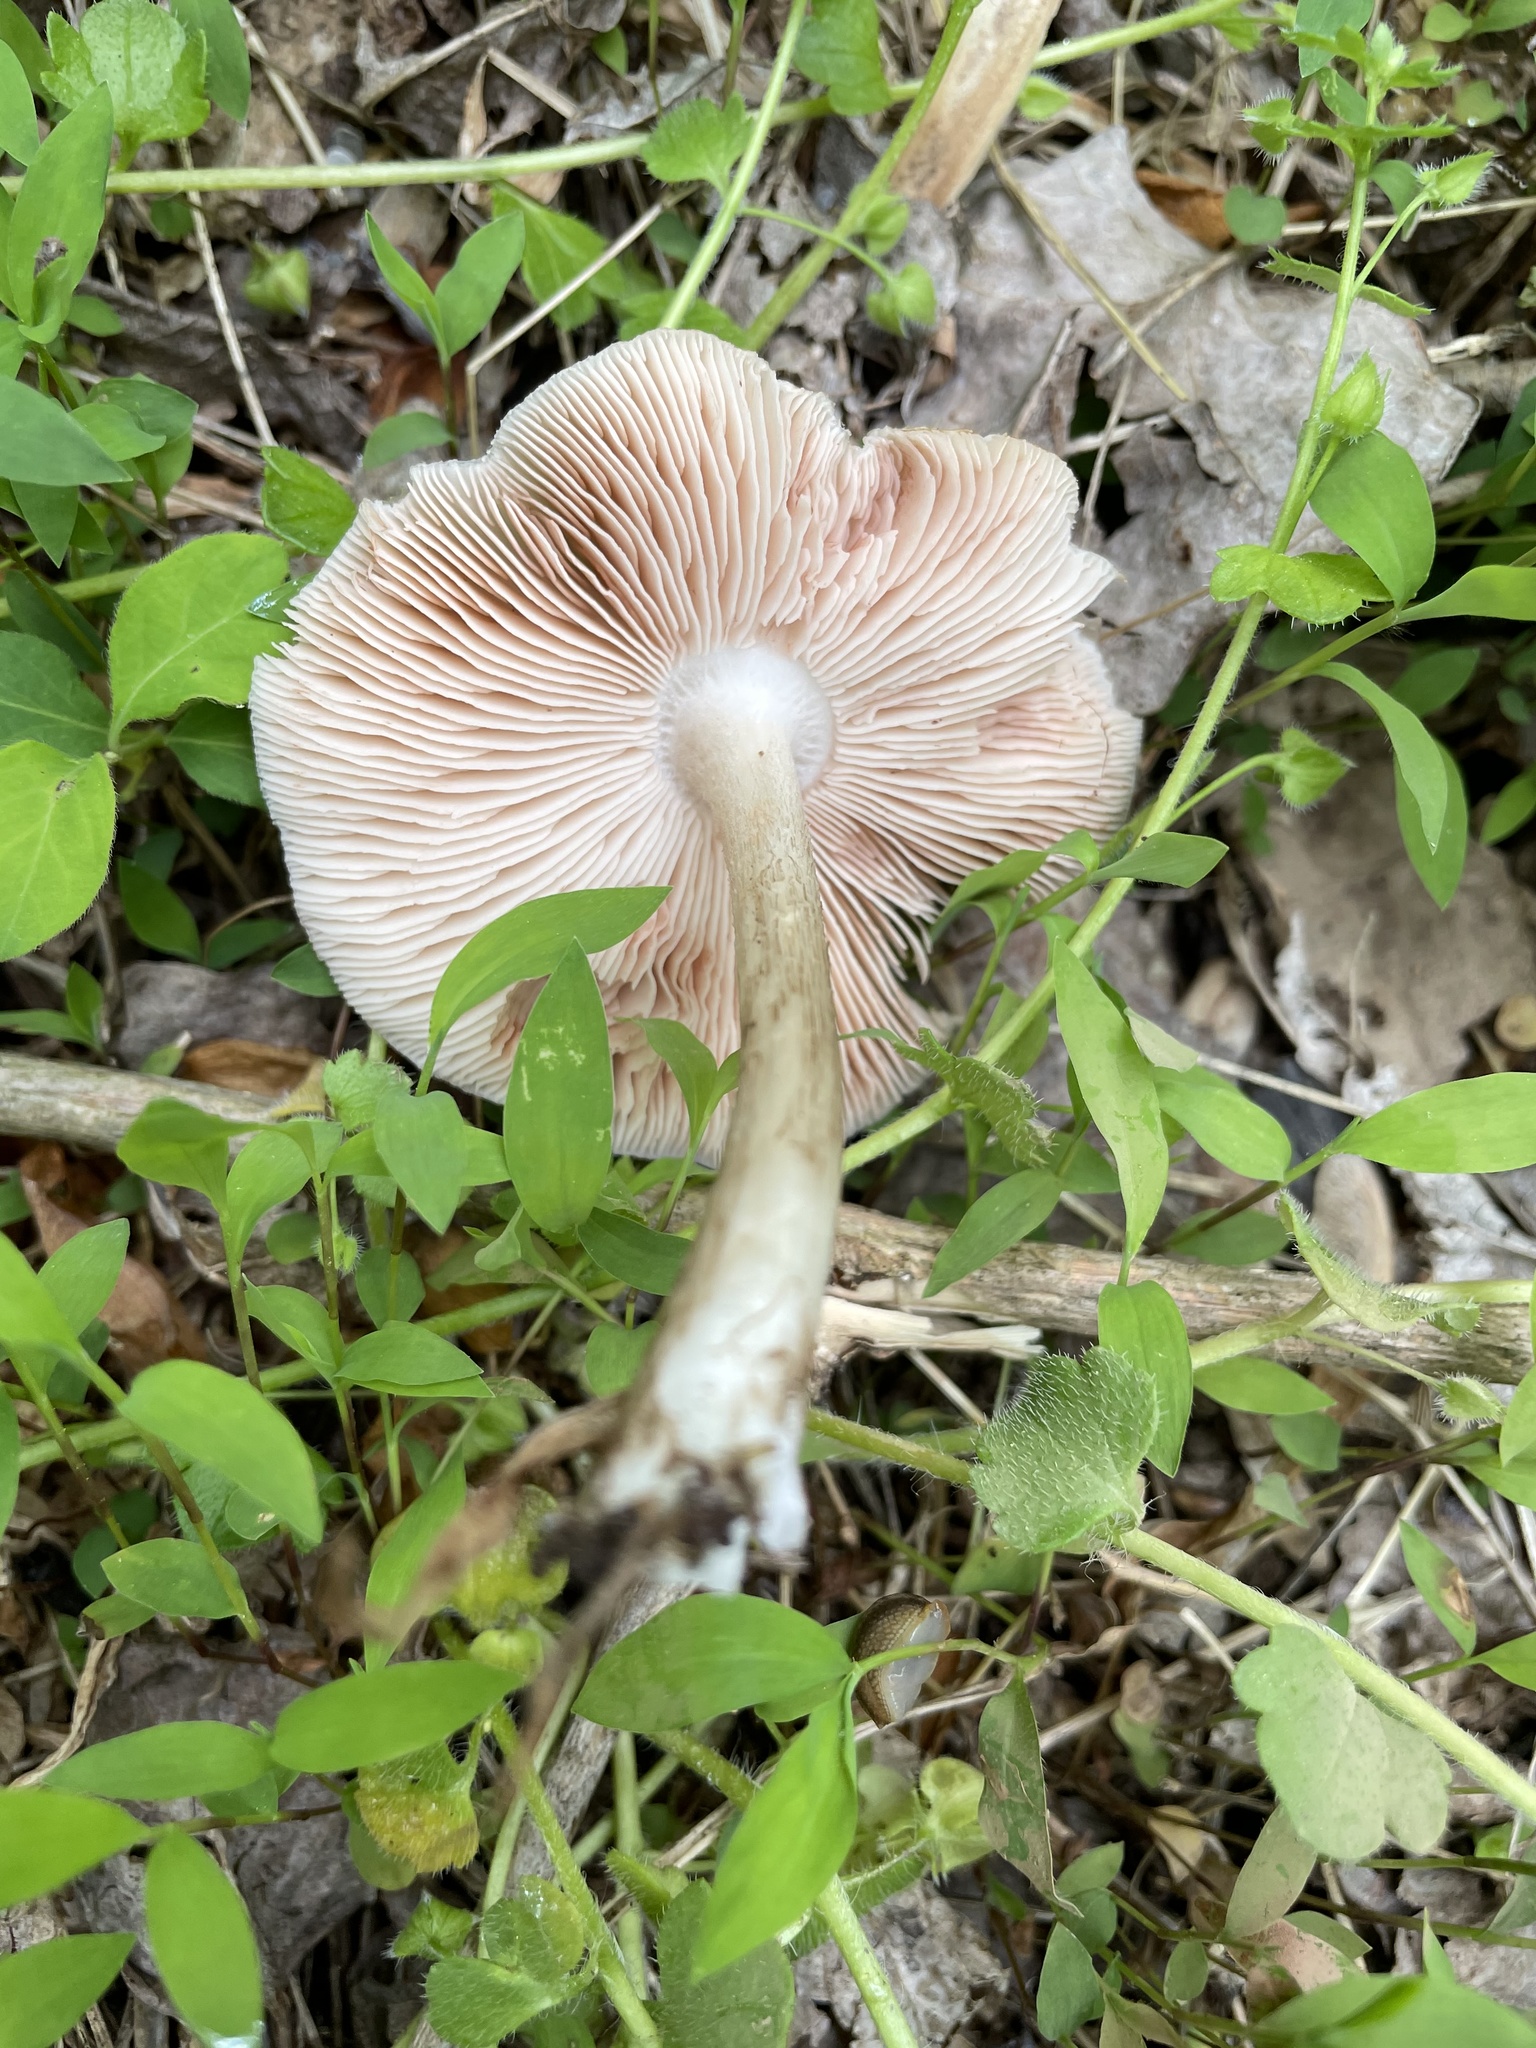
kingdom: Fungi
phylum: Basidiomycota
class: Agaricomycetes
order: Agaricales
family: Pluteaceae
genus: Pluteus
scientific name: Pluteus cervinus
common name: Deer shield
